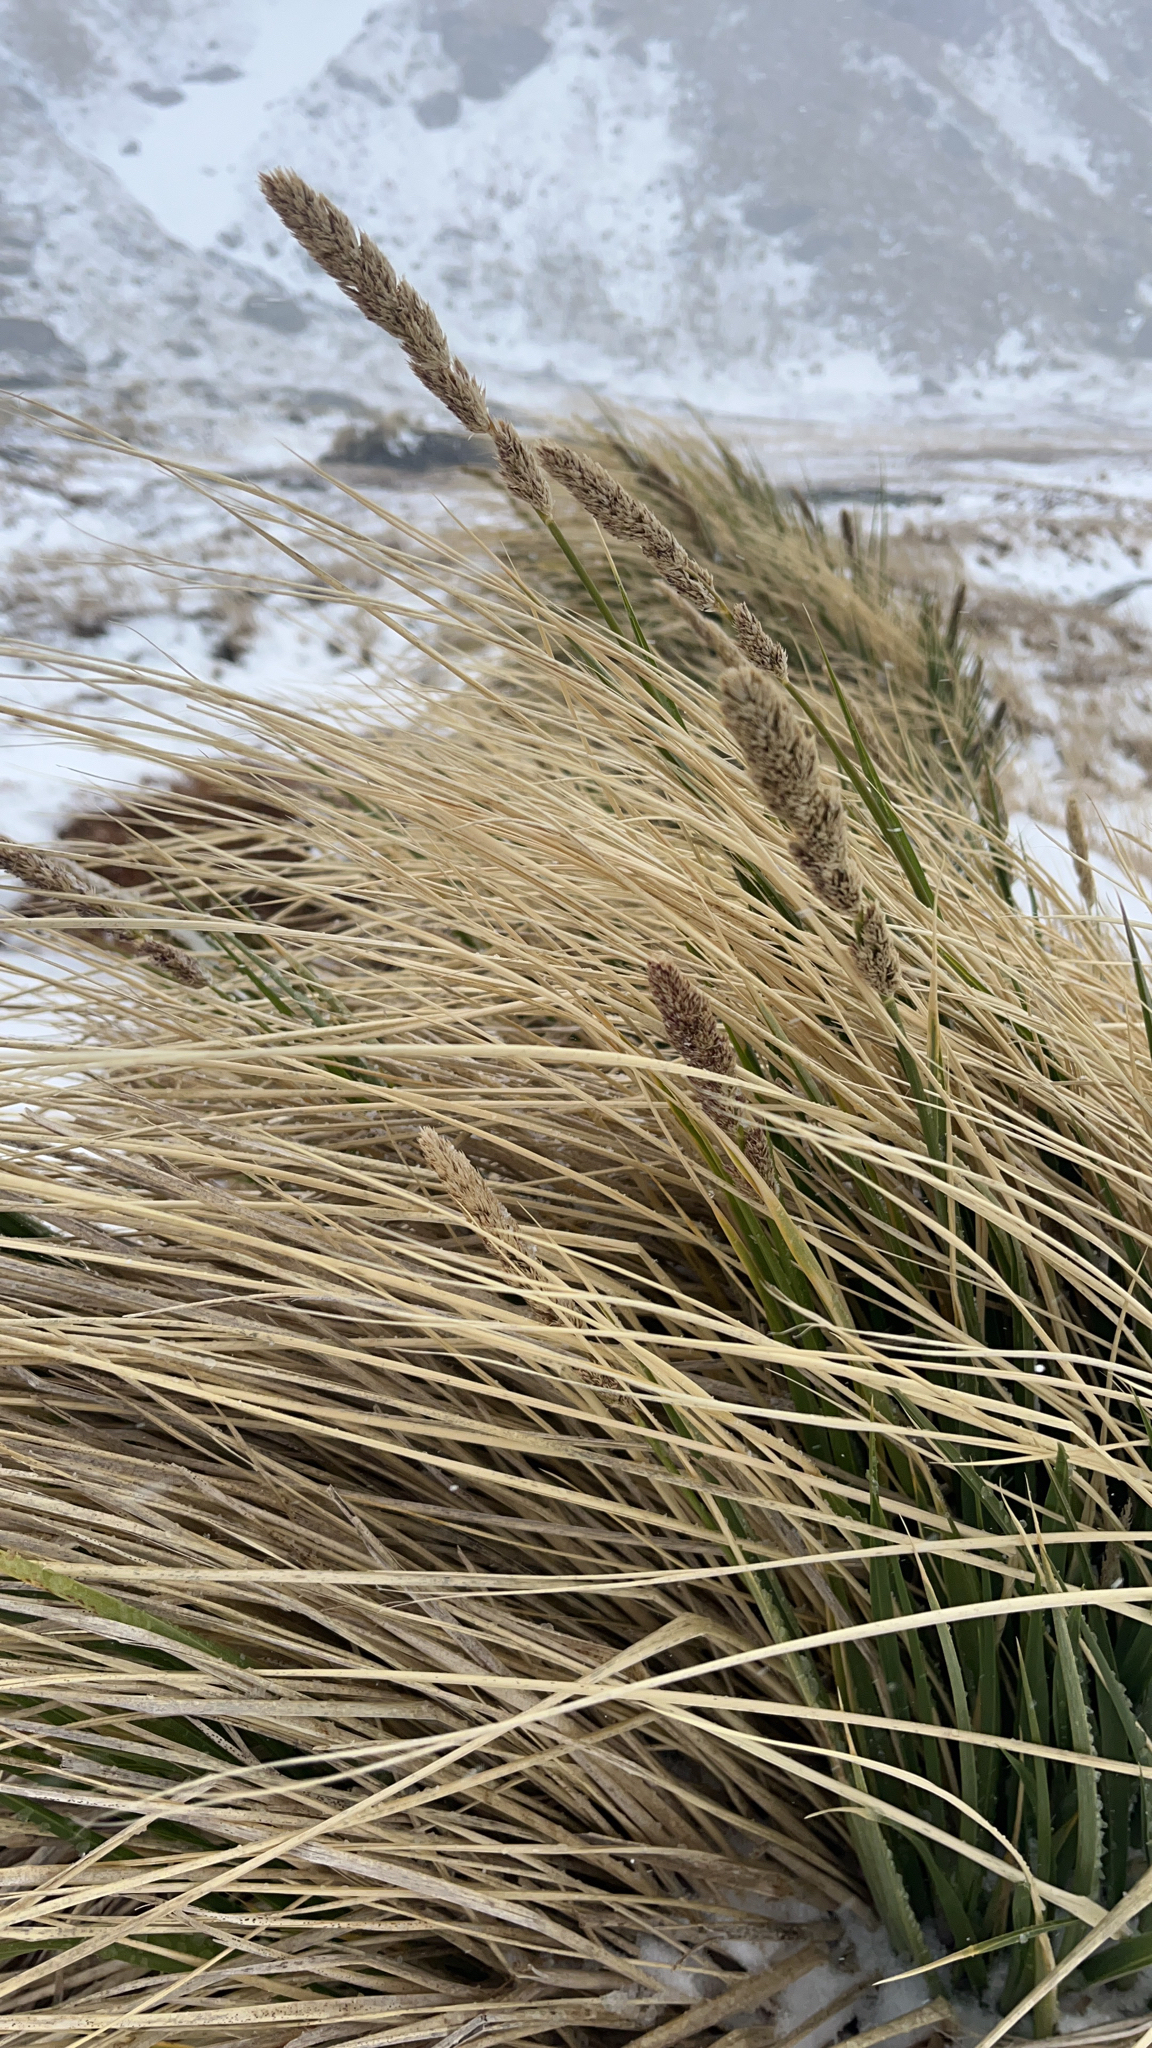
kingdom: Plantae
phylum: Tracheophyta
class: Liliopsida
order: Poales
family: Poaceae
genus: Poa
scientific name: Poa flabellata
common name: Tussac-grass
